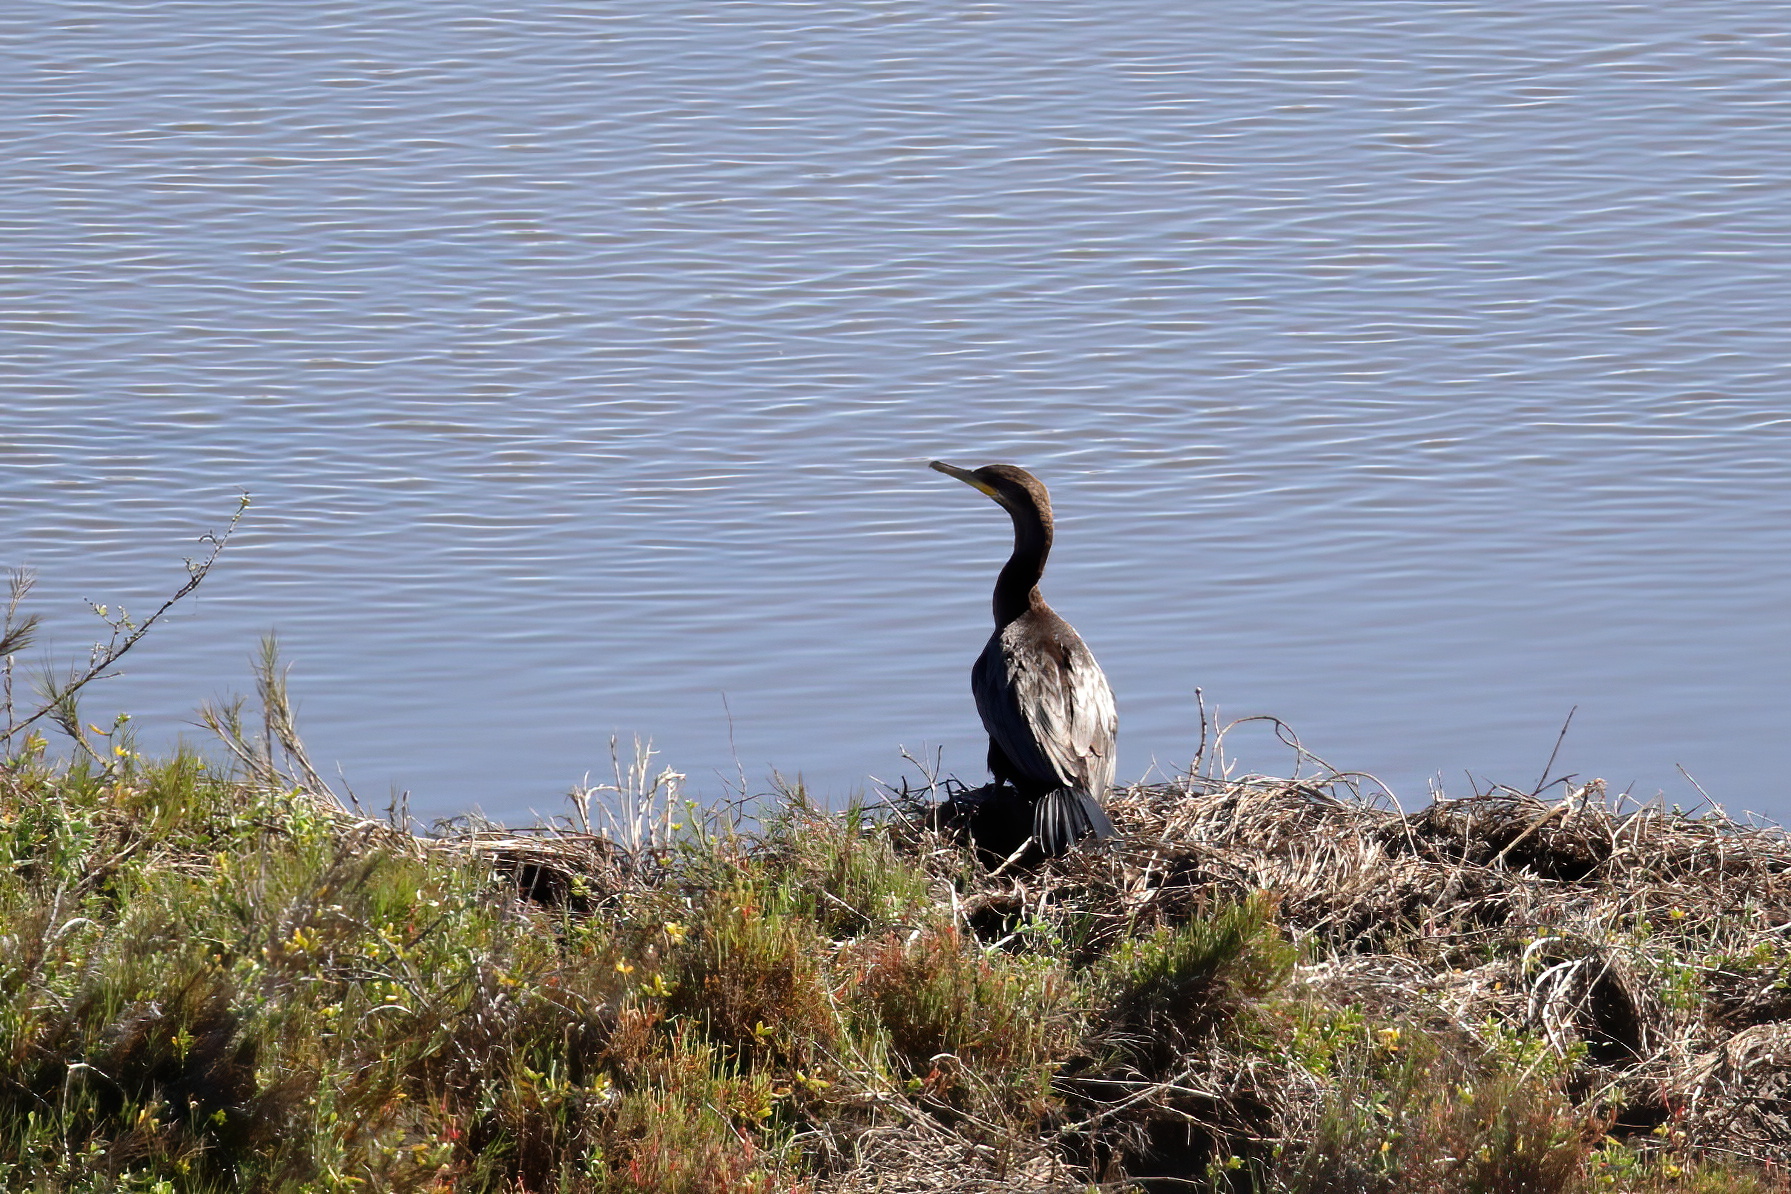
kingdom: Animalia
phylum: Chordata
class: Aves
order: Suliformes
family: Phalacrocoracidae
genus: Phalacrocorax
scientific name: Phalacrocorax brasilianus
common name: Neotropic cormorant
